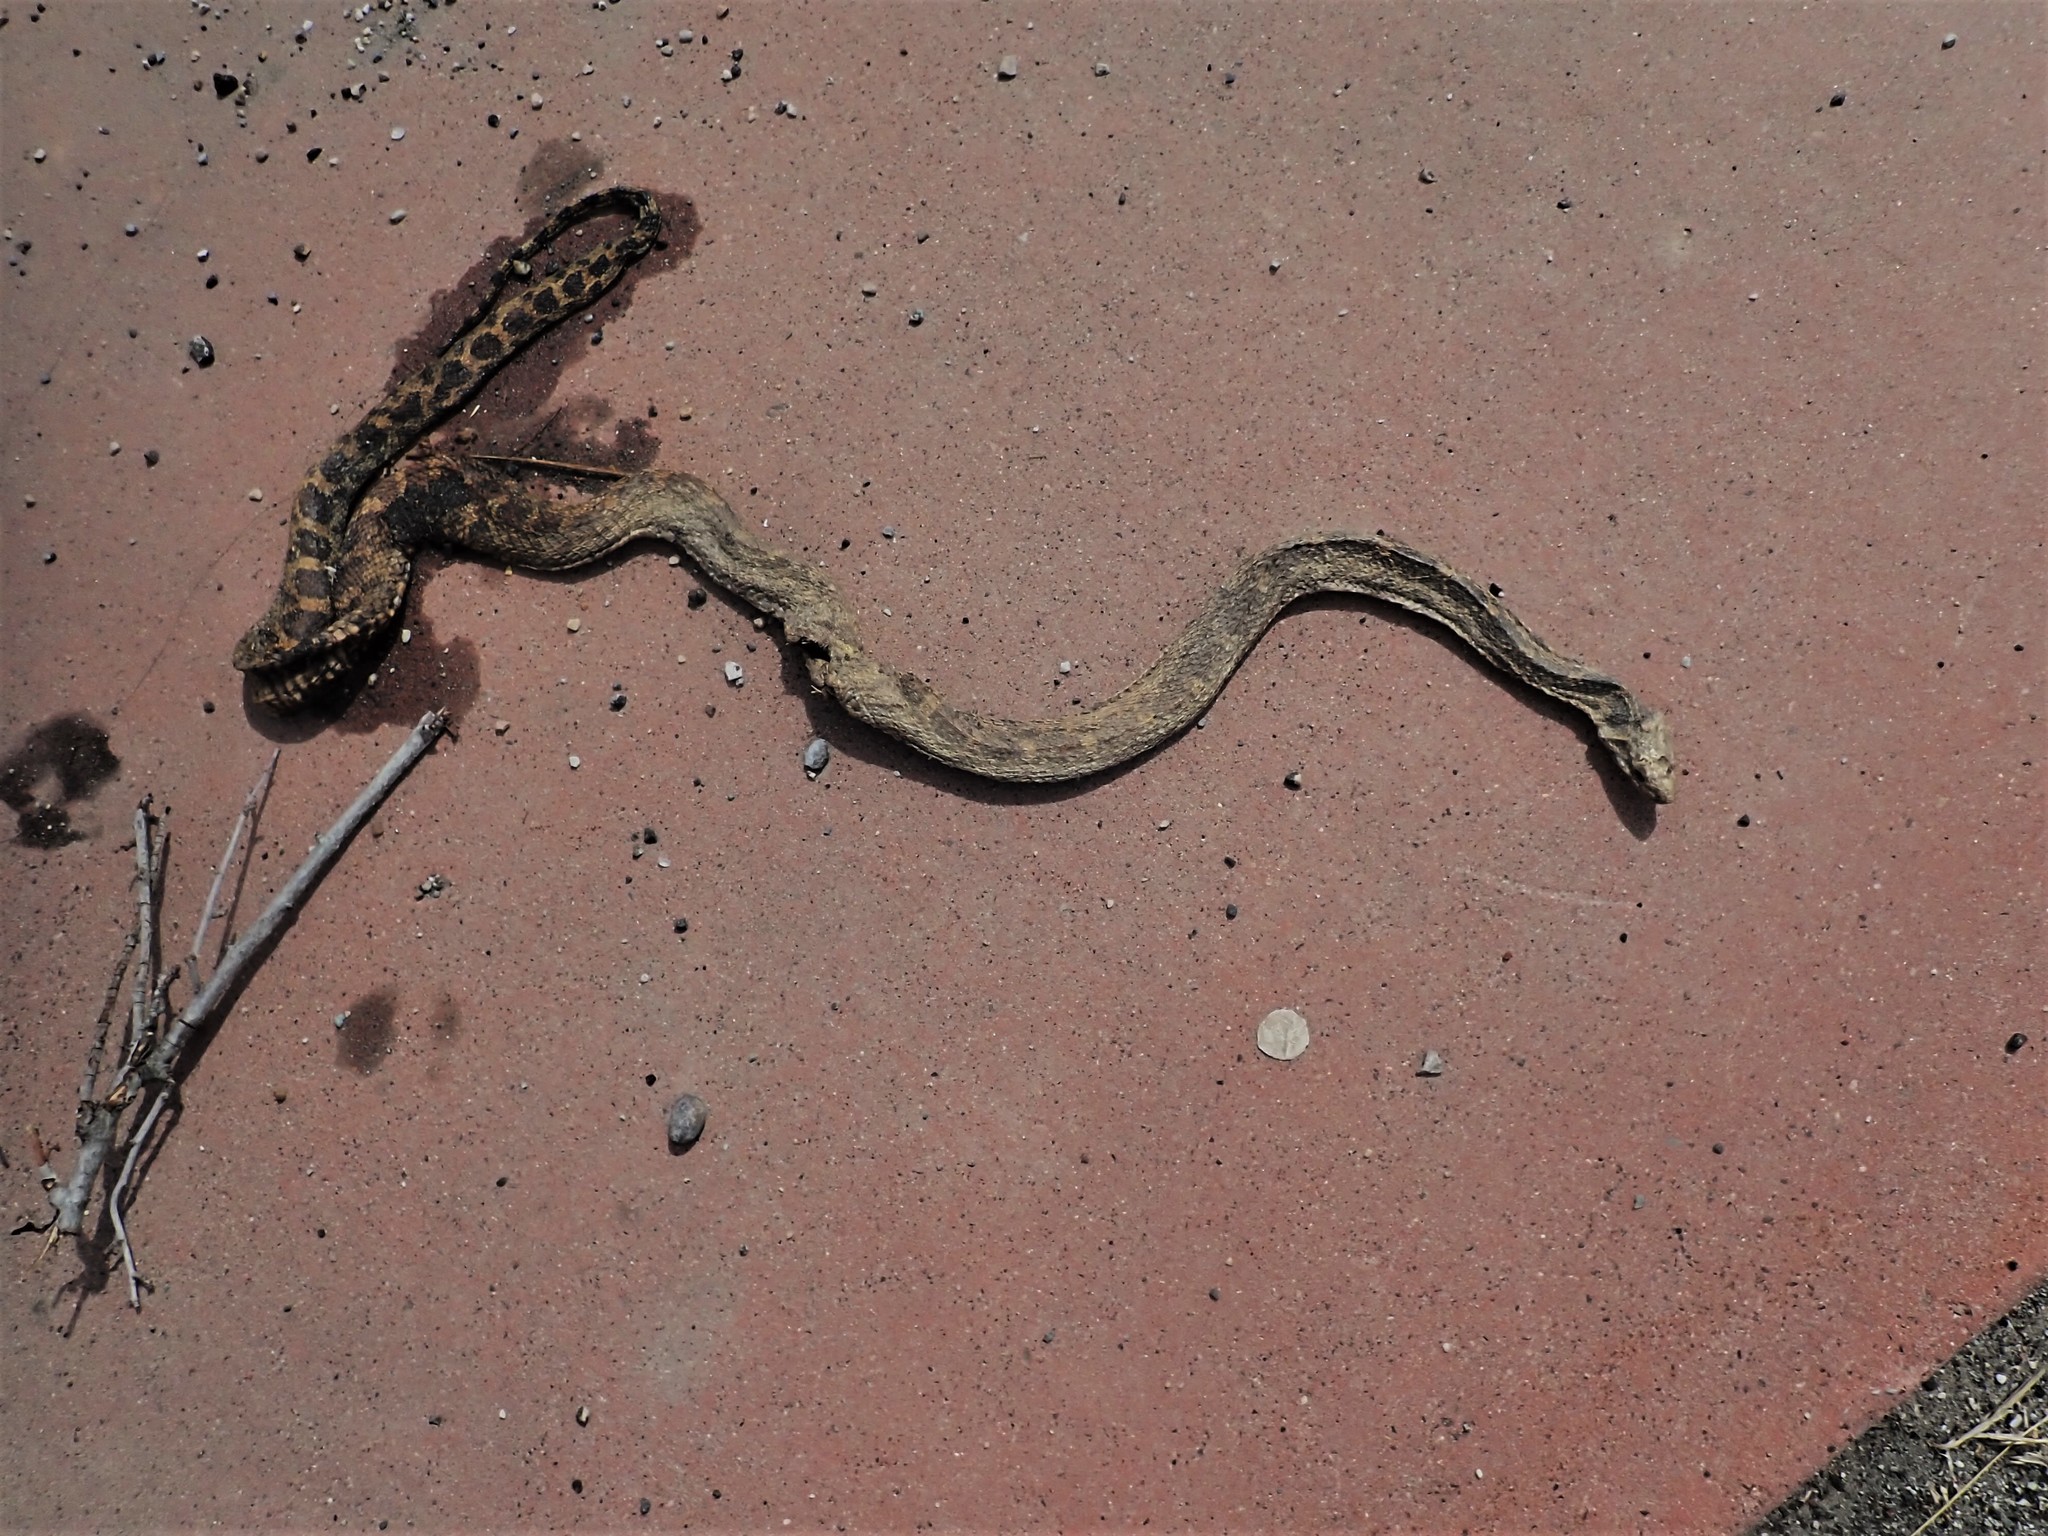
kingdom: Animalia
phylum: Chordata
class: Squamata
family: Colubridae
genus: Pituophis
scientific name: Pituophis catenifer
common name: Gopher snake
